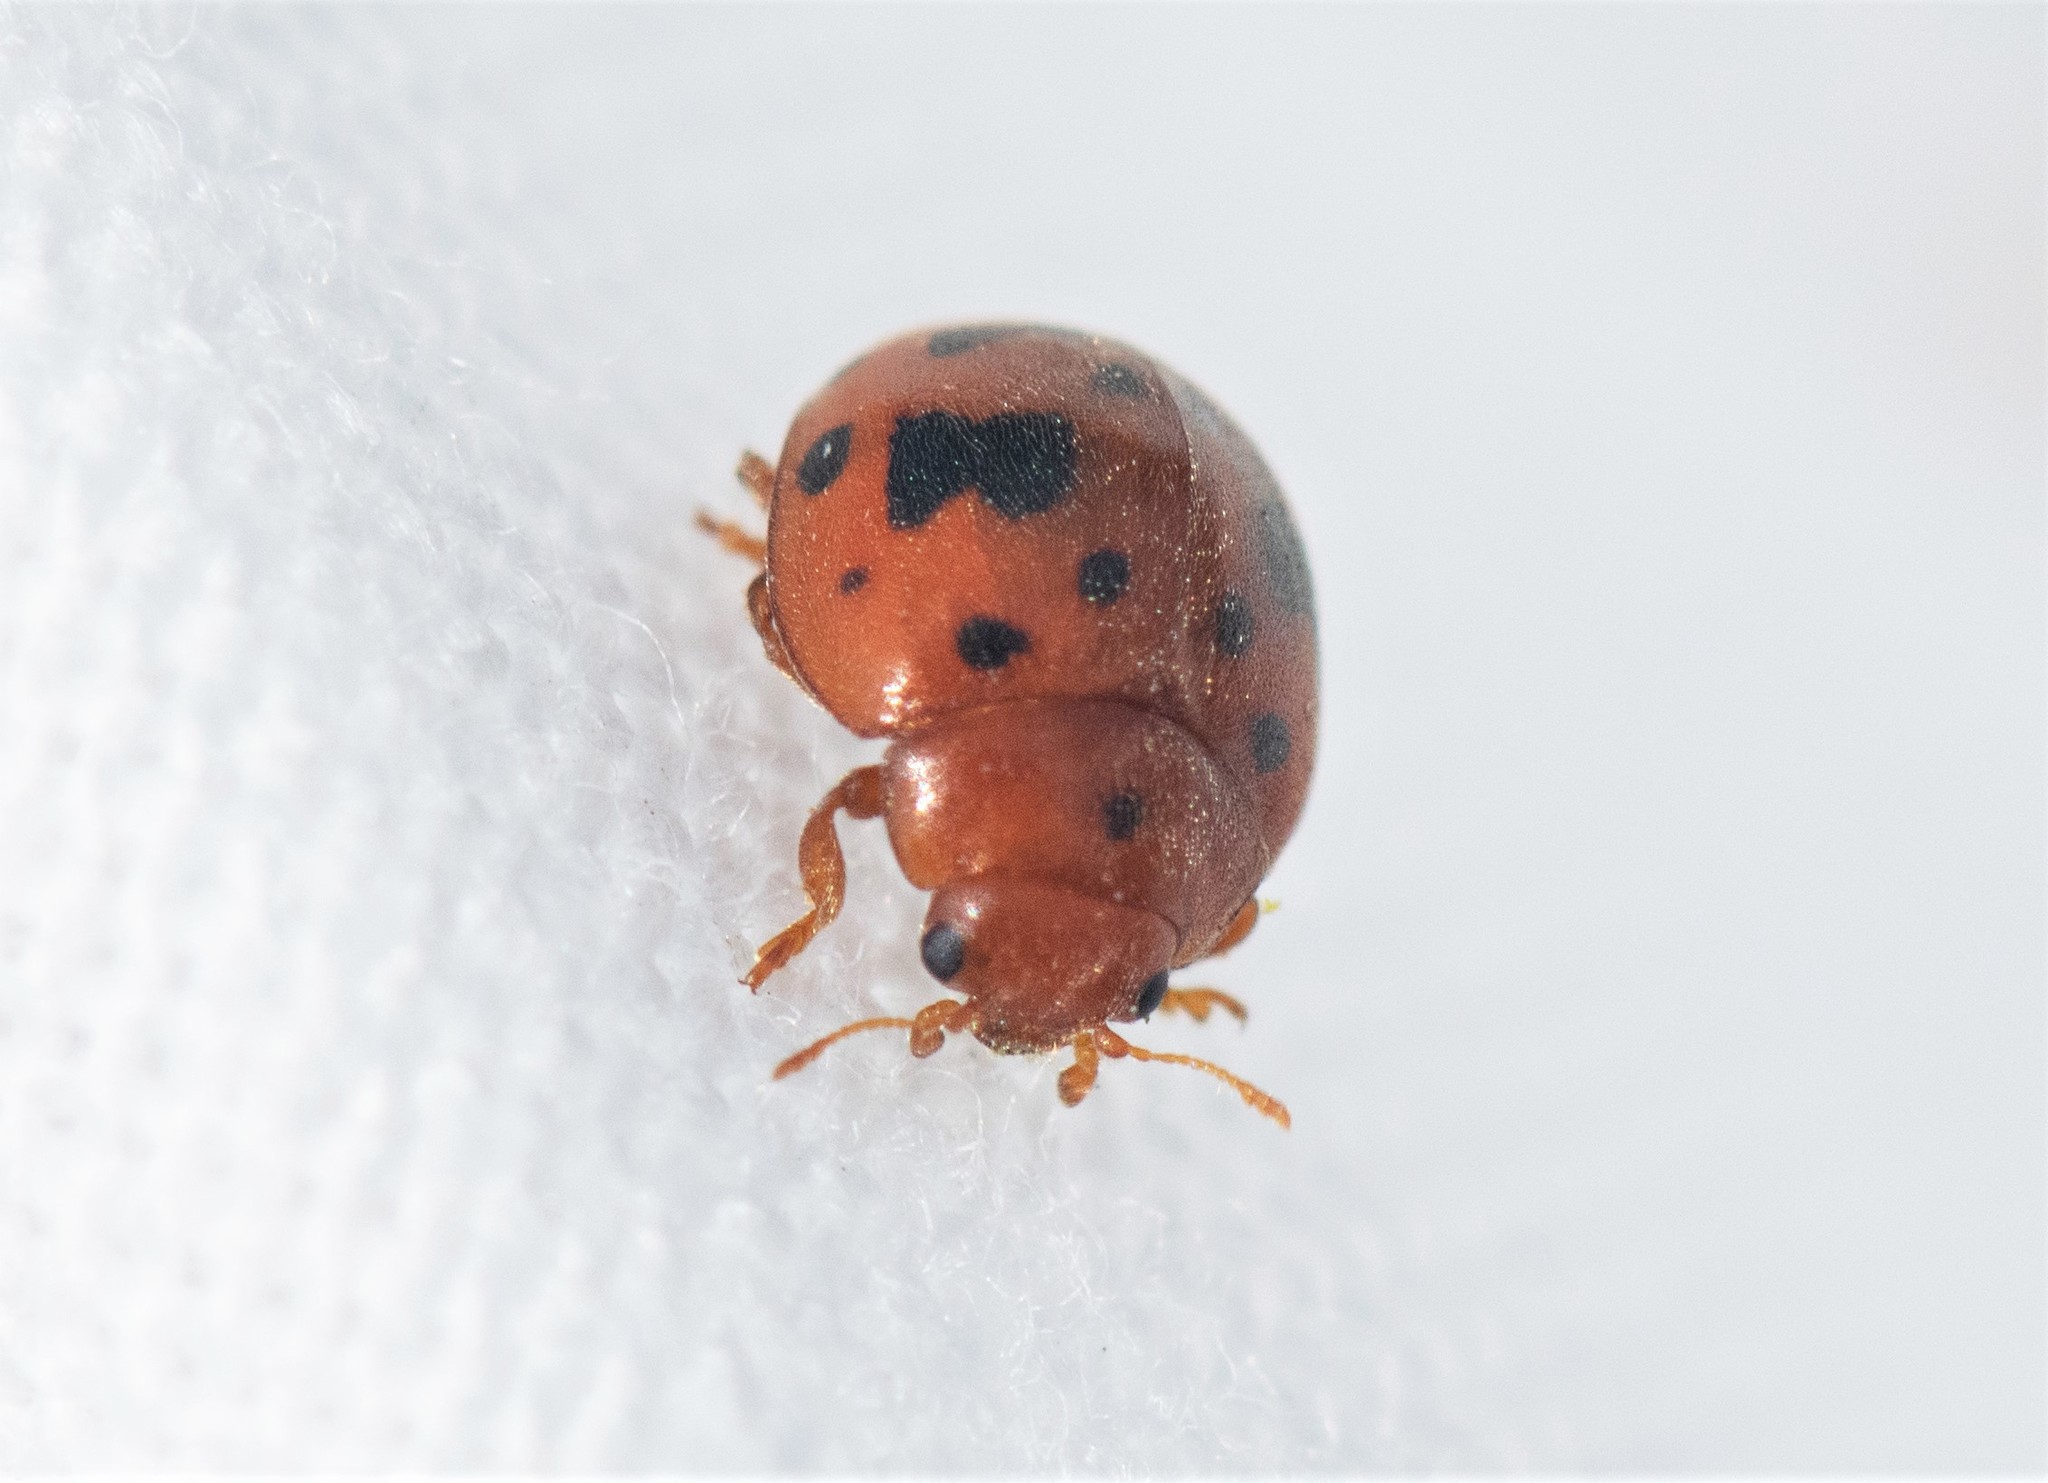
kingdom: Animalia
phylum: Arthropoda
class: Insecta
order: Coleoptera
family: Coccinellidae
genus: Subcoccinella
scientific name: Subcoccinella vigintiquatuorpunctata
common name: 24-spot ladybird
